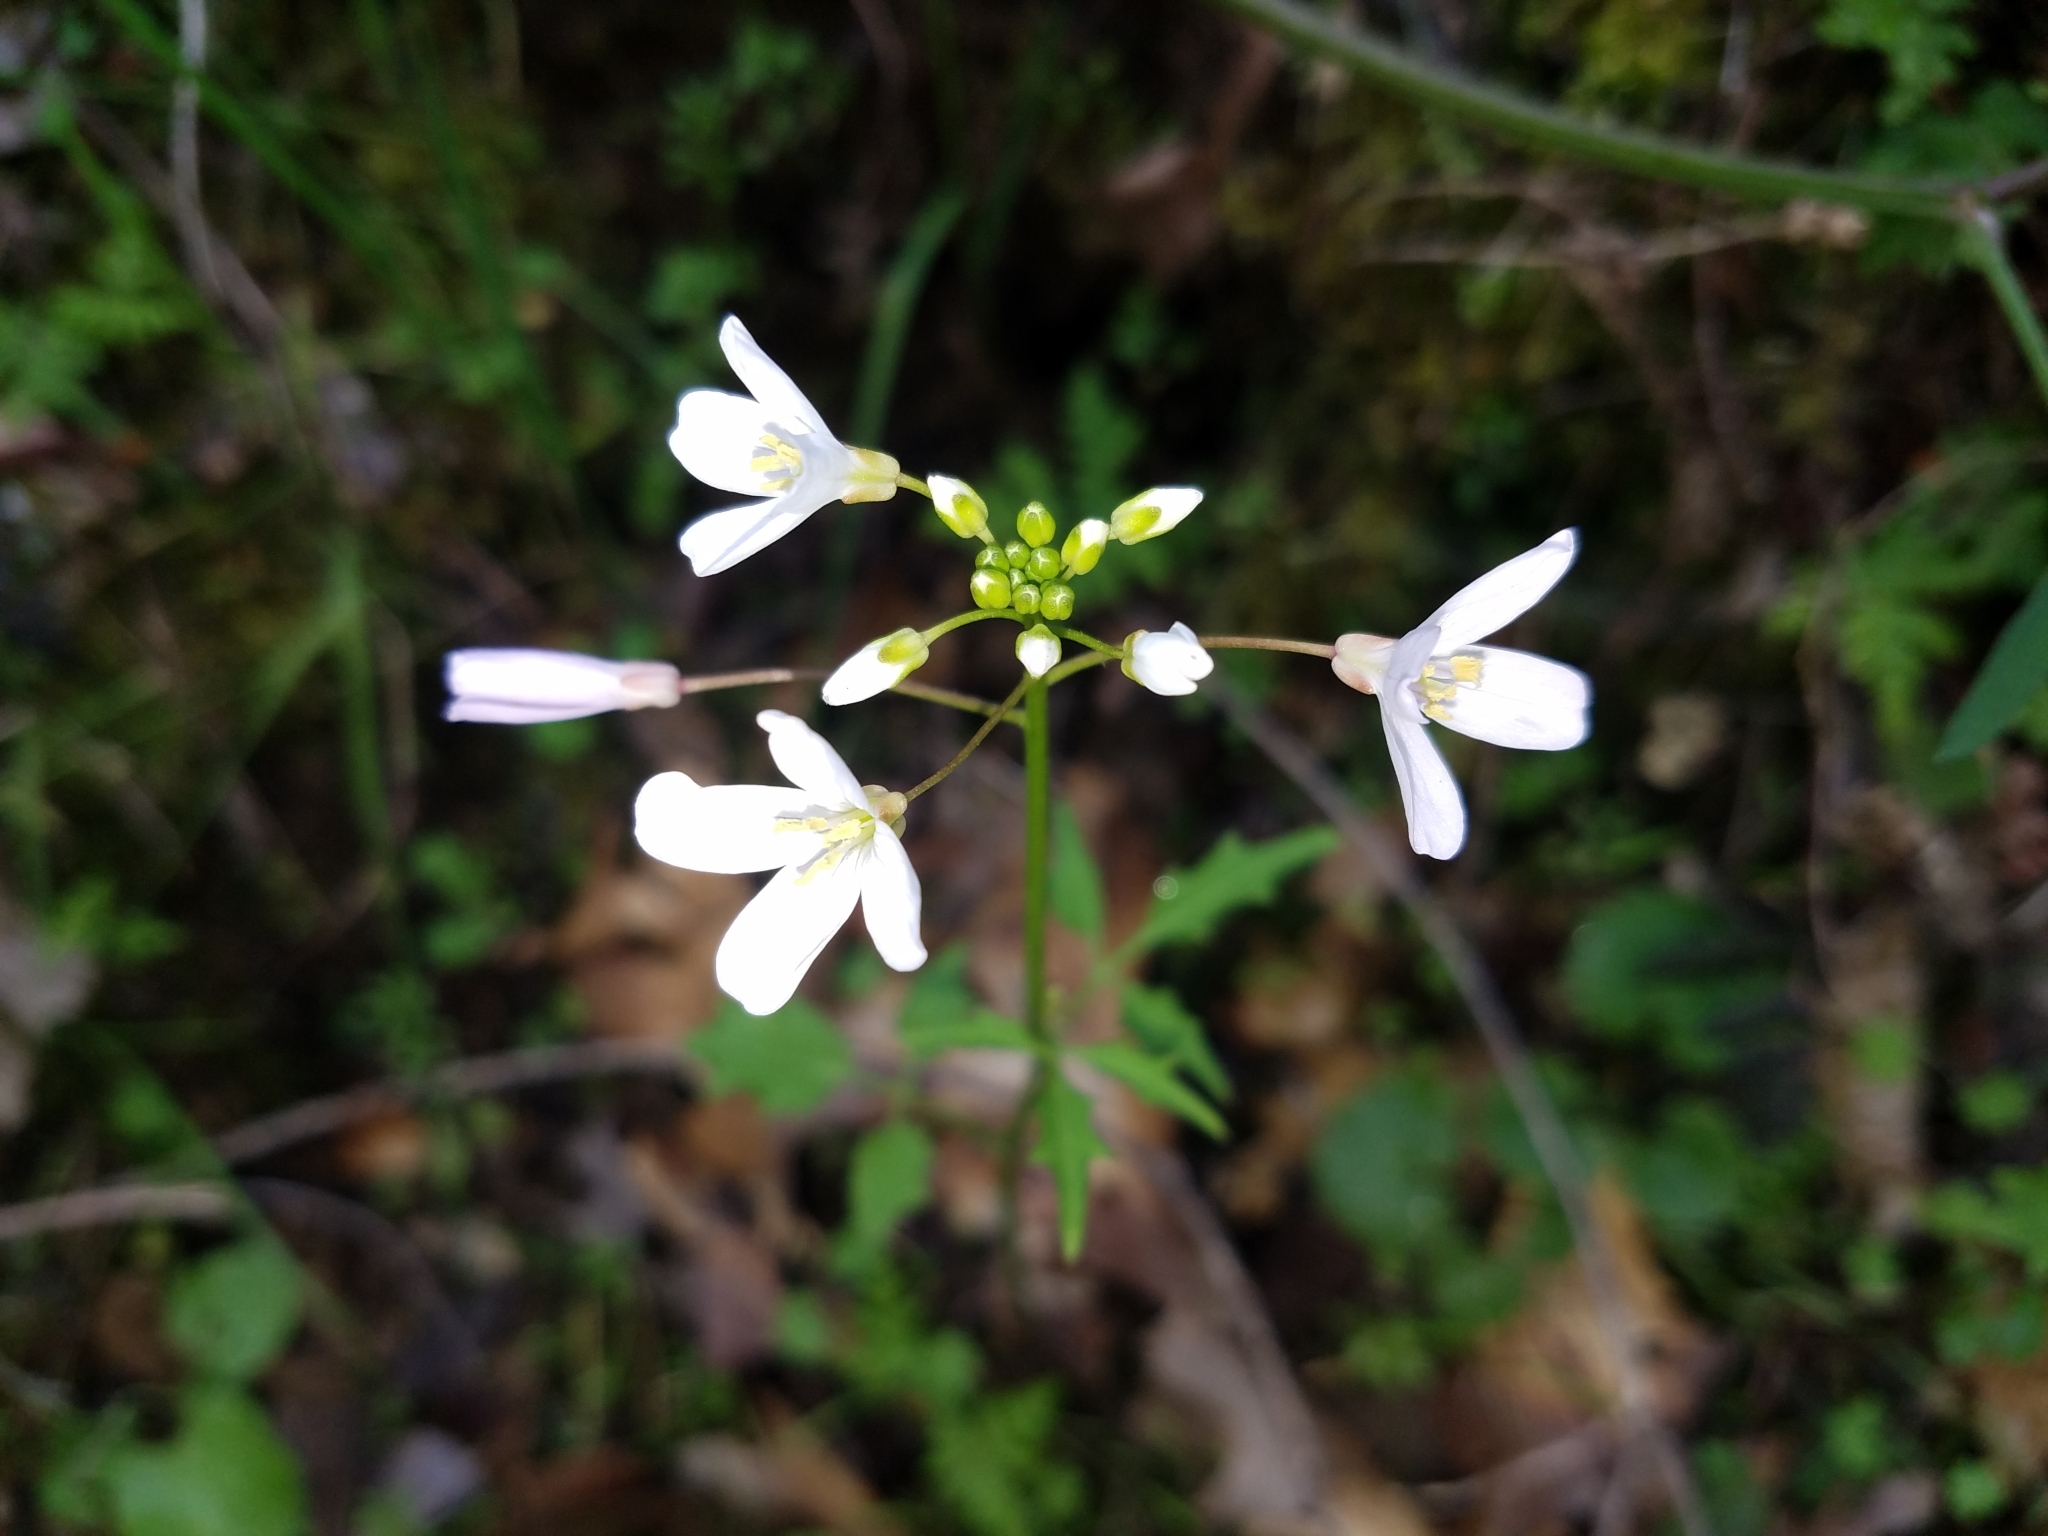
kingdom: Plantae
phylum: Tracheophyta
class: Magnoliopsida
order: Brassicales
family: Brassicaceae
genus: Cardamine
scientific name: Cardamine californica
